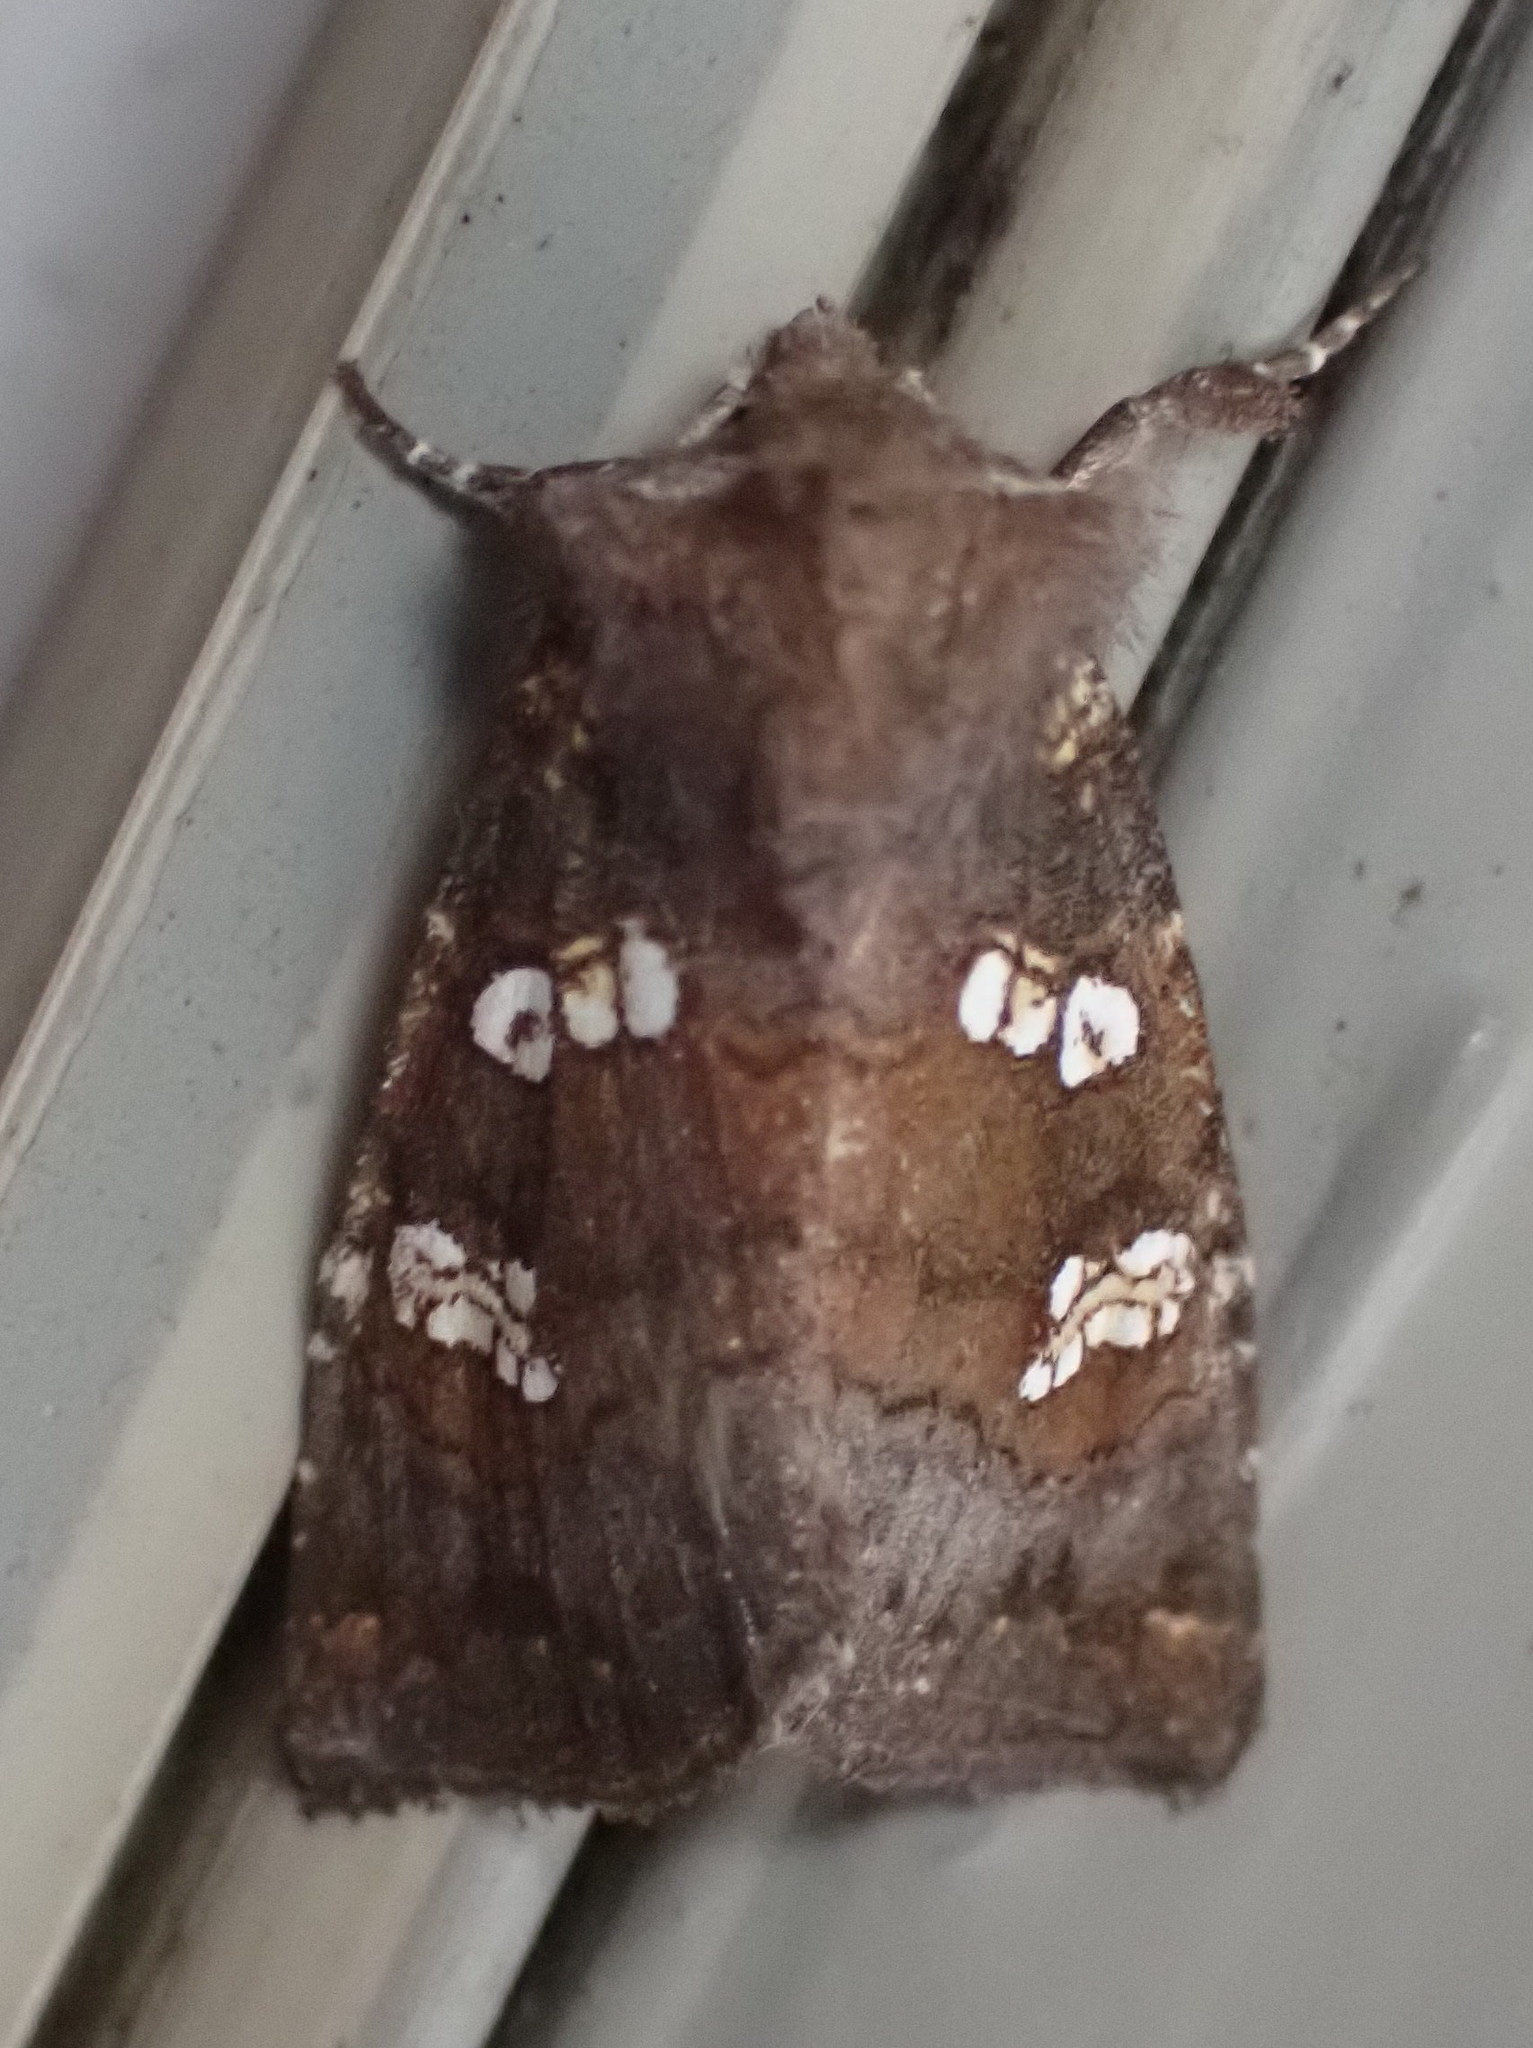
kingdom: Animalia
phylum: Arthropoda
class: Insecta
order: Lepidoptera
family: Noctuidae
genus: Papaipema
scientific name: Papaipema unimoda
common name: Meadow rue borer moth
